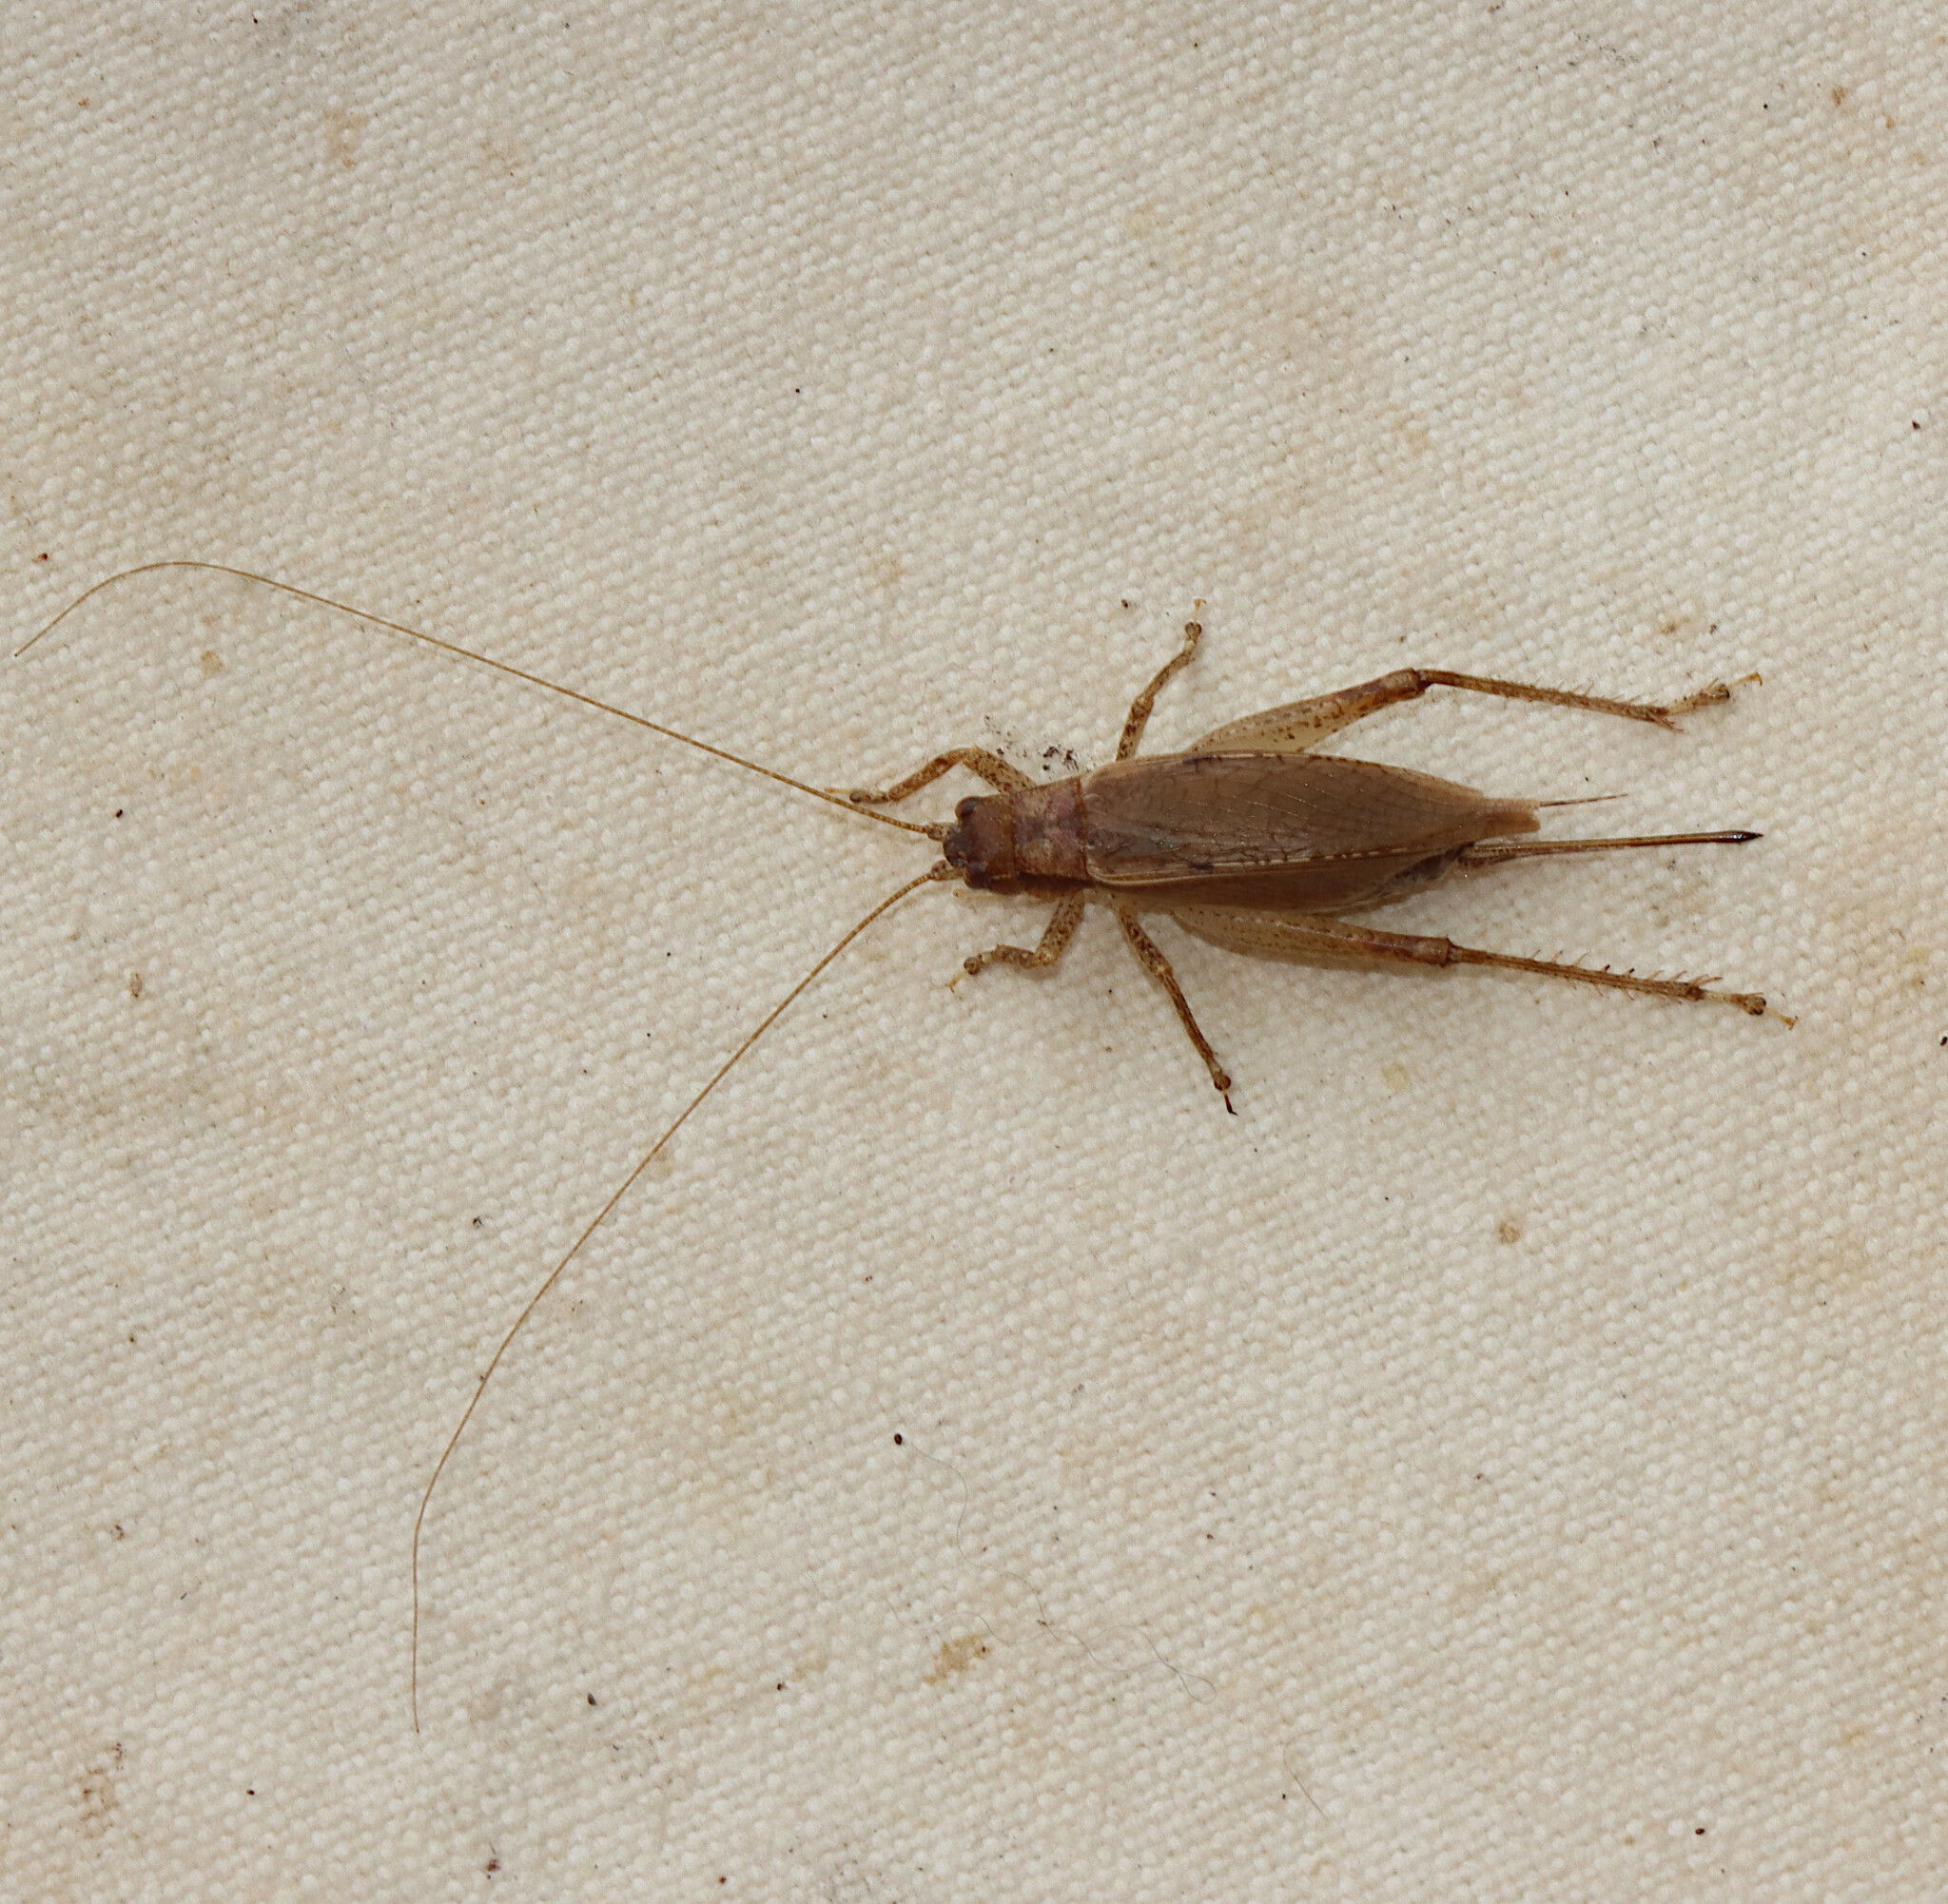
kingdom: Animalia
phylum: Arthropoda
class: Insecta
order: Orthoptera
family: Gryllidae
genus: Hapithus
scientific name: Hapithus saltator
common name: Jumping bush cricket
